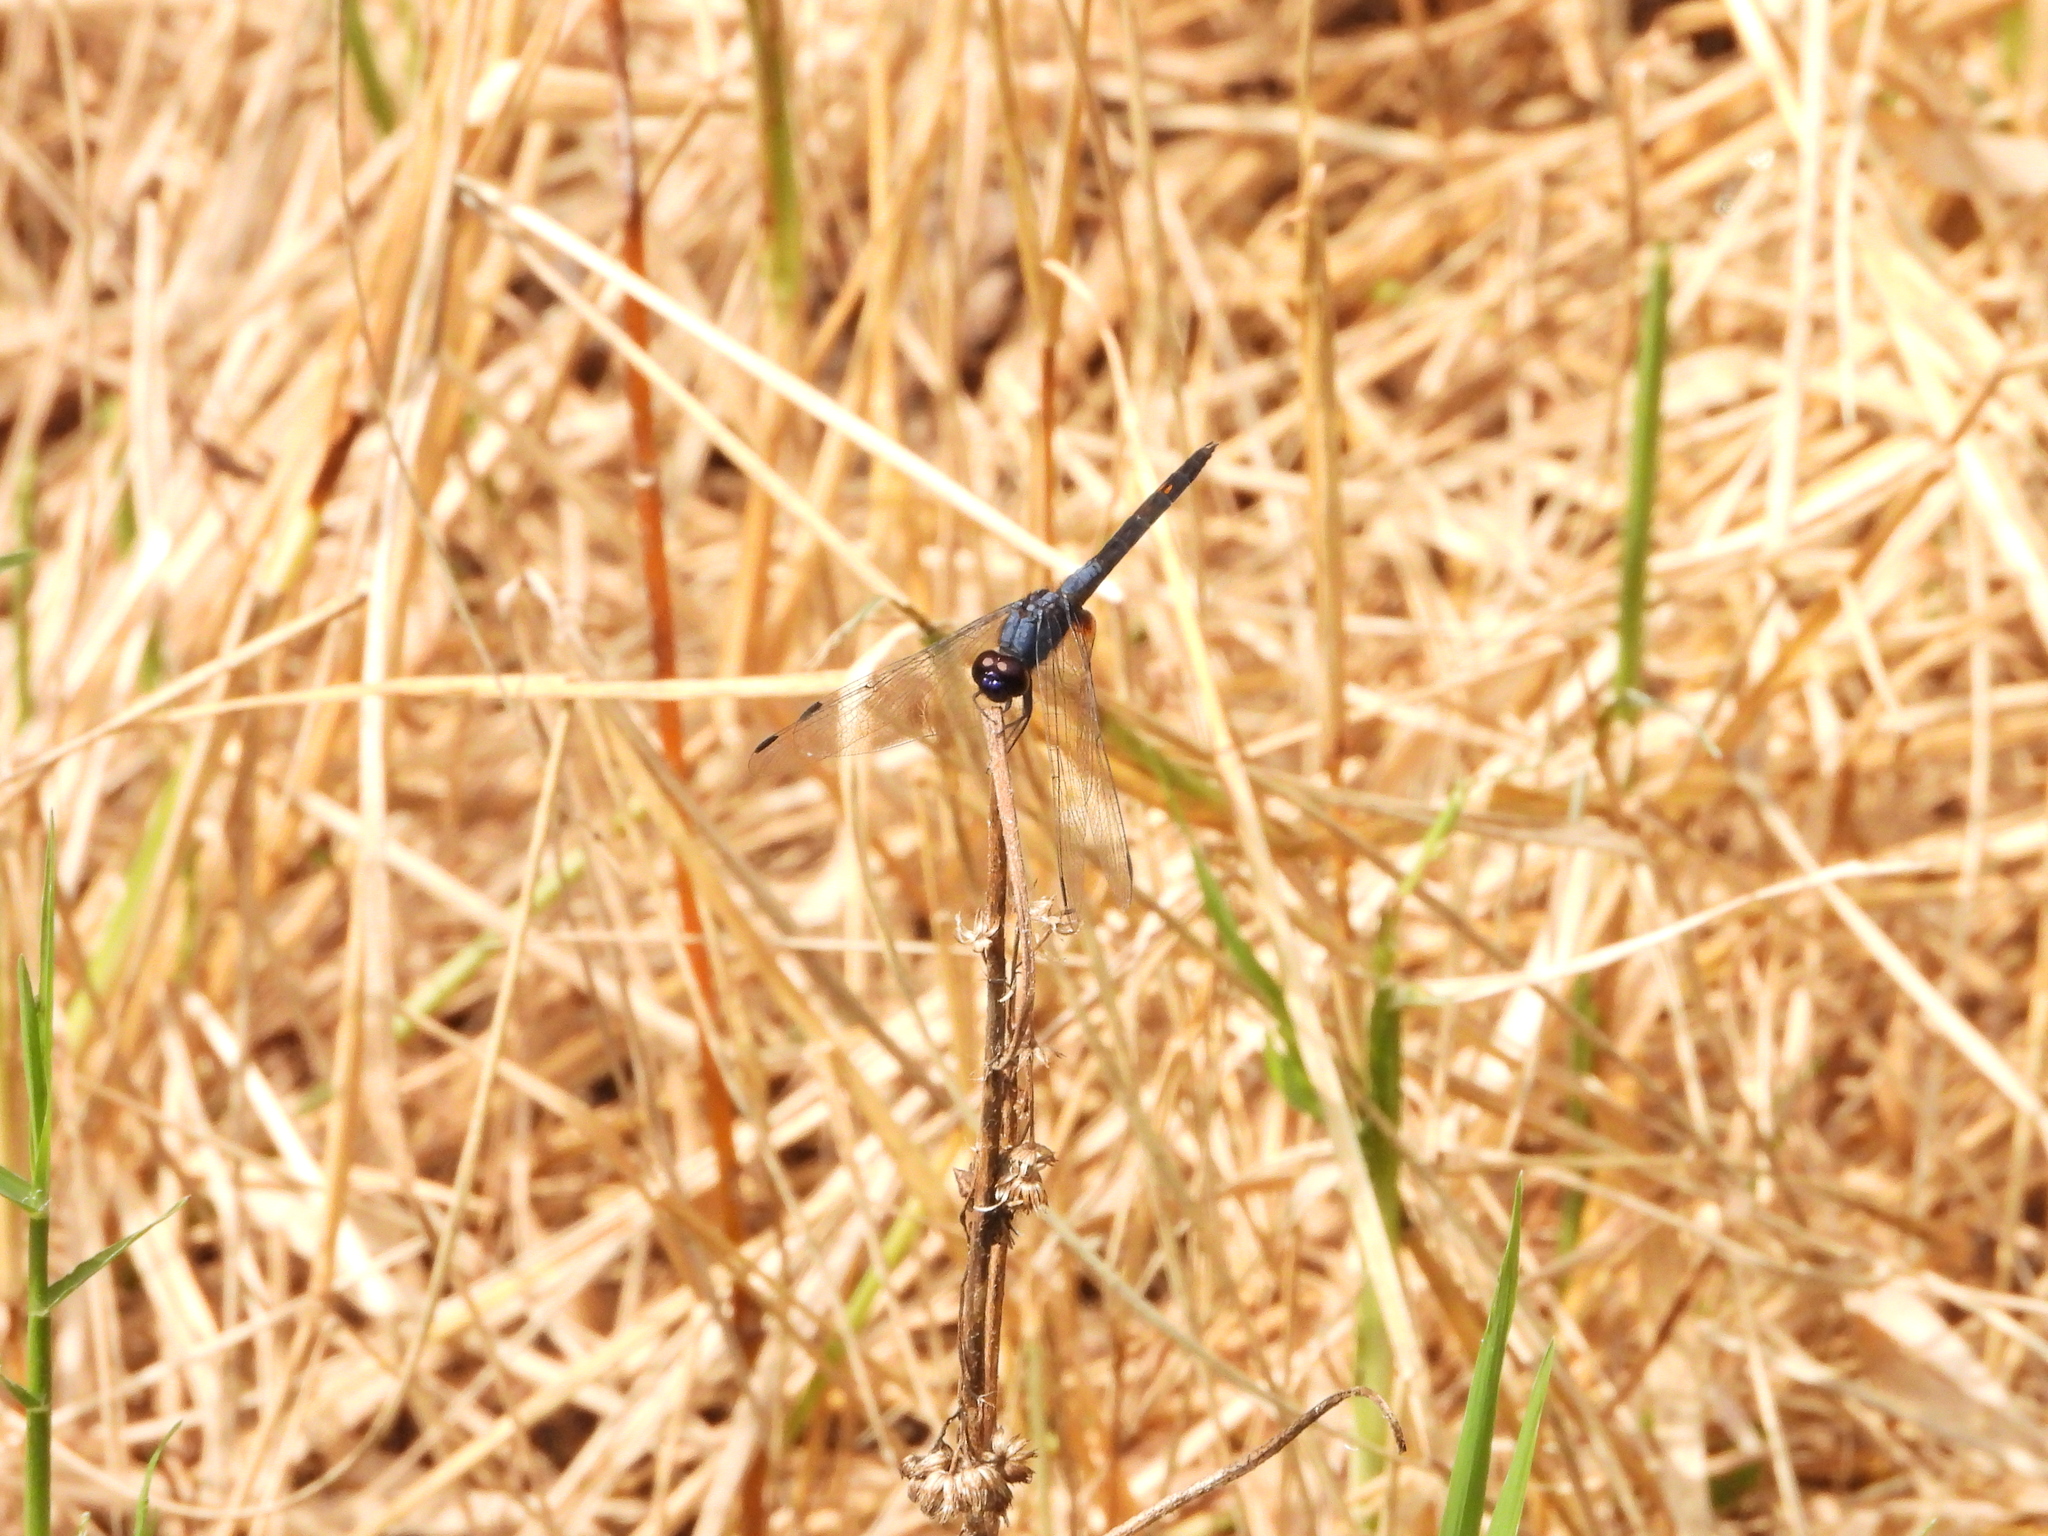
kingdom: Animalia
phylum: Arthropoda
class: Insecta
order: Odonata
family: Libellulidae
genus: Trithemis
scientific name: Trithemis festiva
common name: Indigo dropwing
